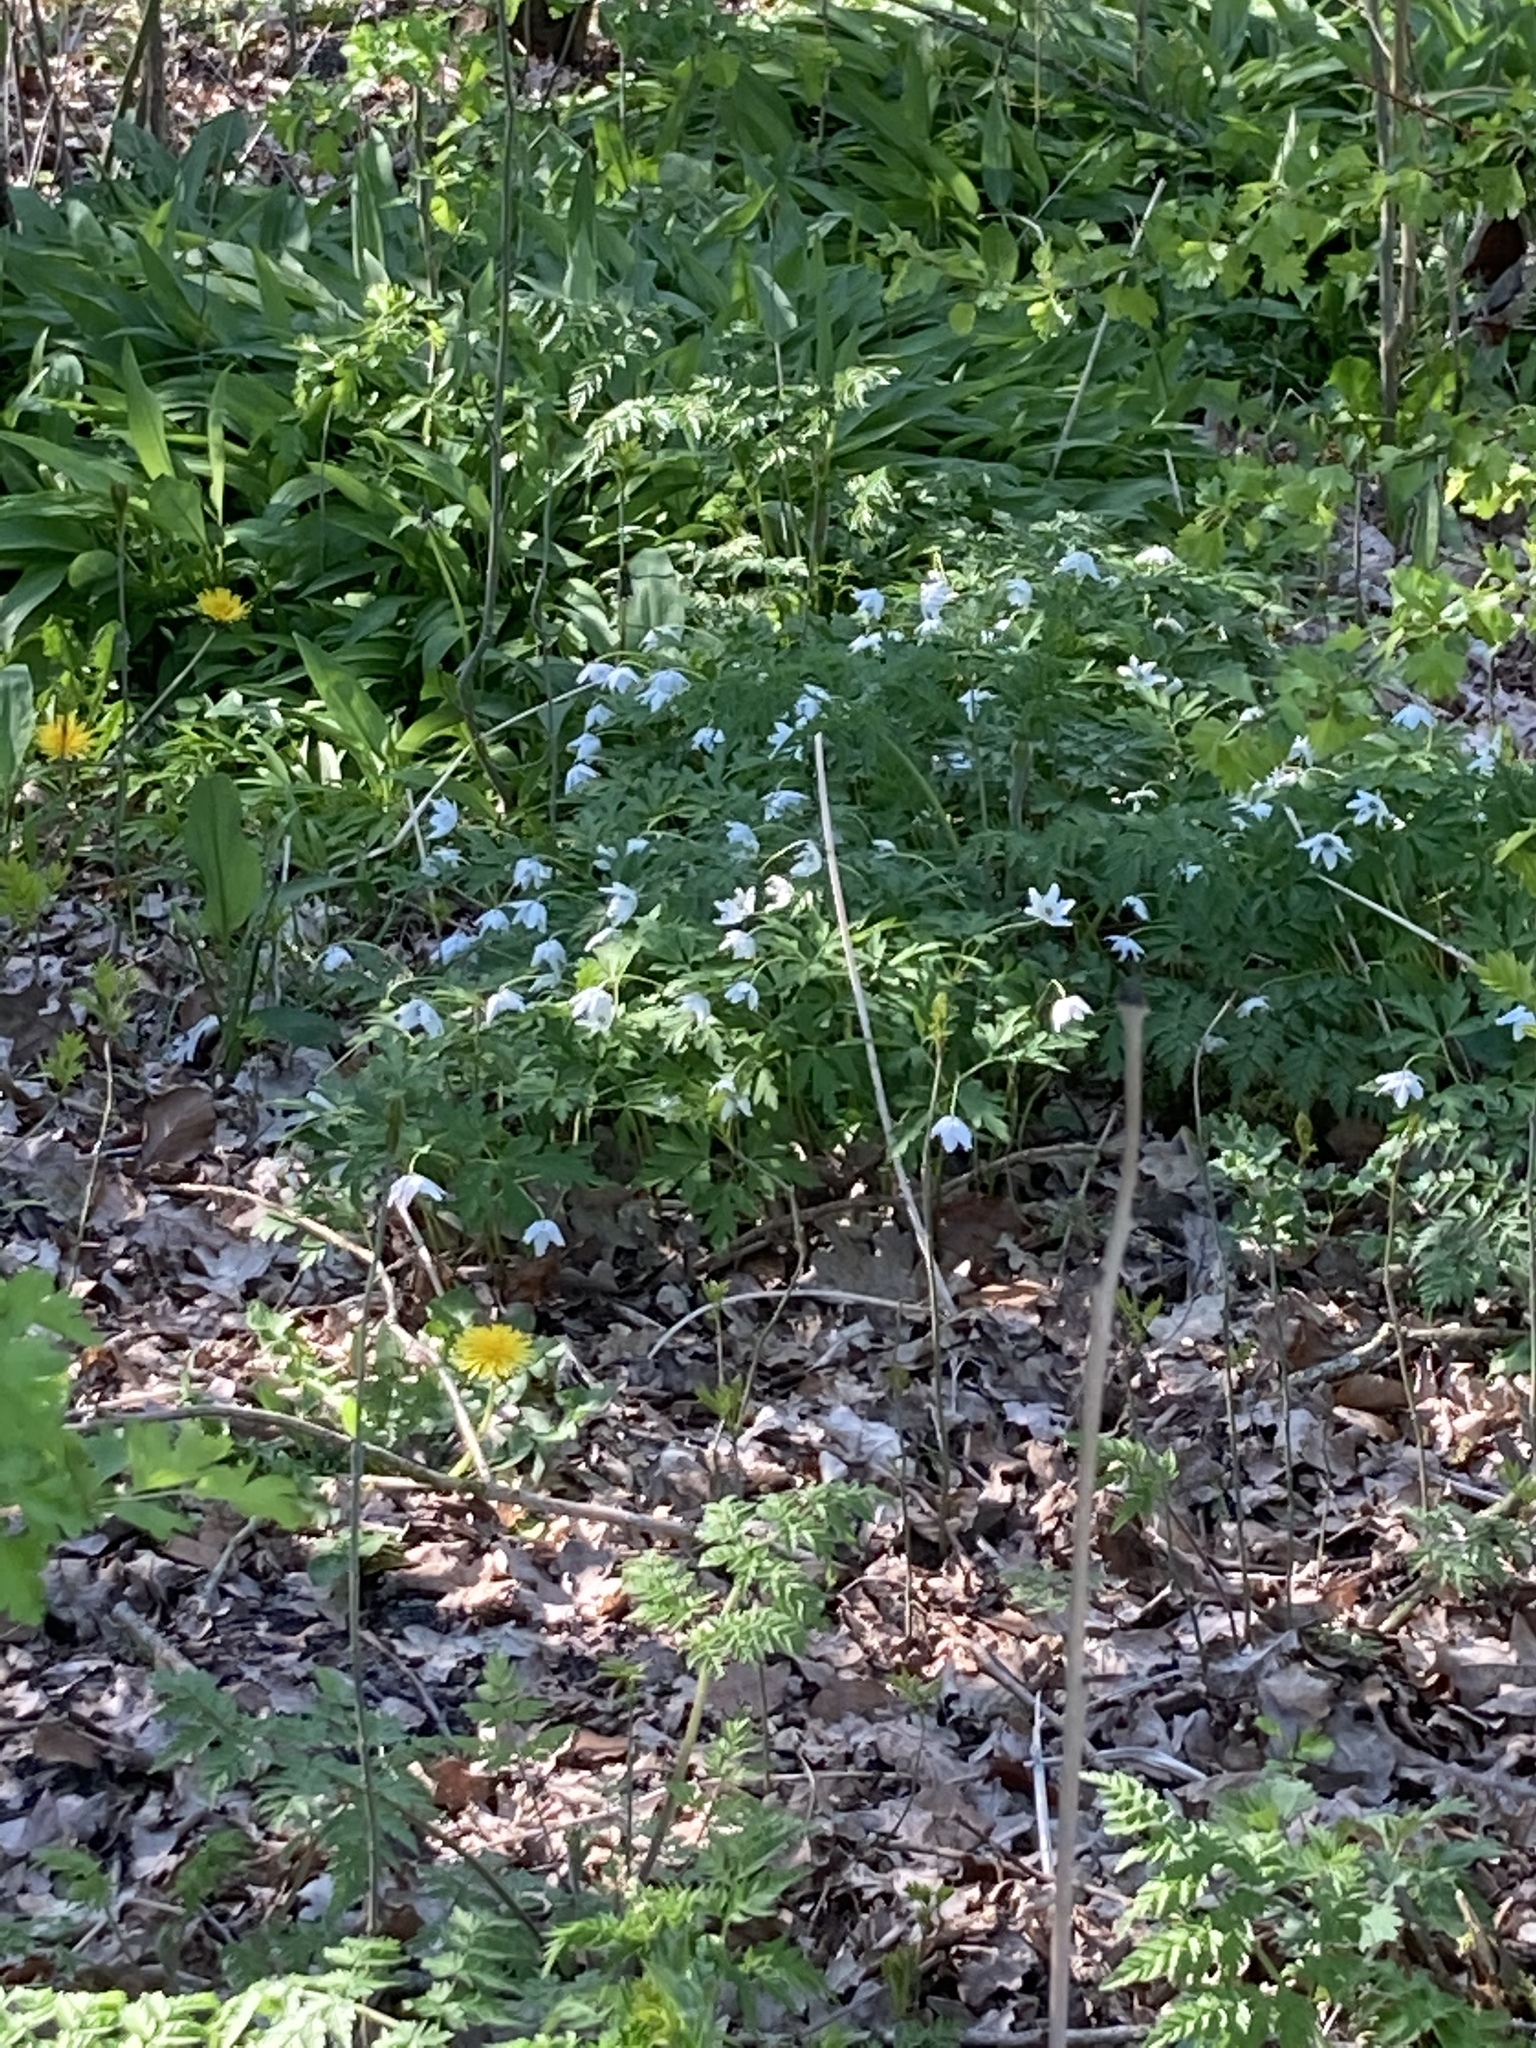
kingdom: Plantae
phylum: Tracheophyta
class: Magnoliopsida
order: Ranunculales
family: Ranunculaceae
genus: Anemone
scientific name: Anemone nemorosa
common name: Wood anemone
